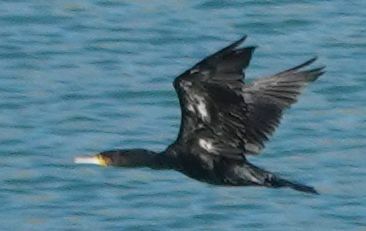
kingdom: Animalia
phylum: Chordata
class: Aves
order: Suliformes
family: Phalacrocoracidae
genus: Phalacrocorax
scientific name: Phalacrocorax carbo
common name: Great cormorant
